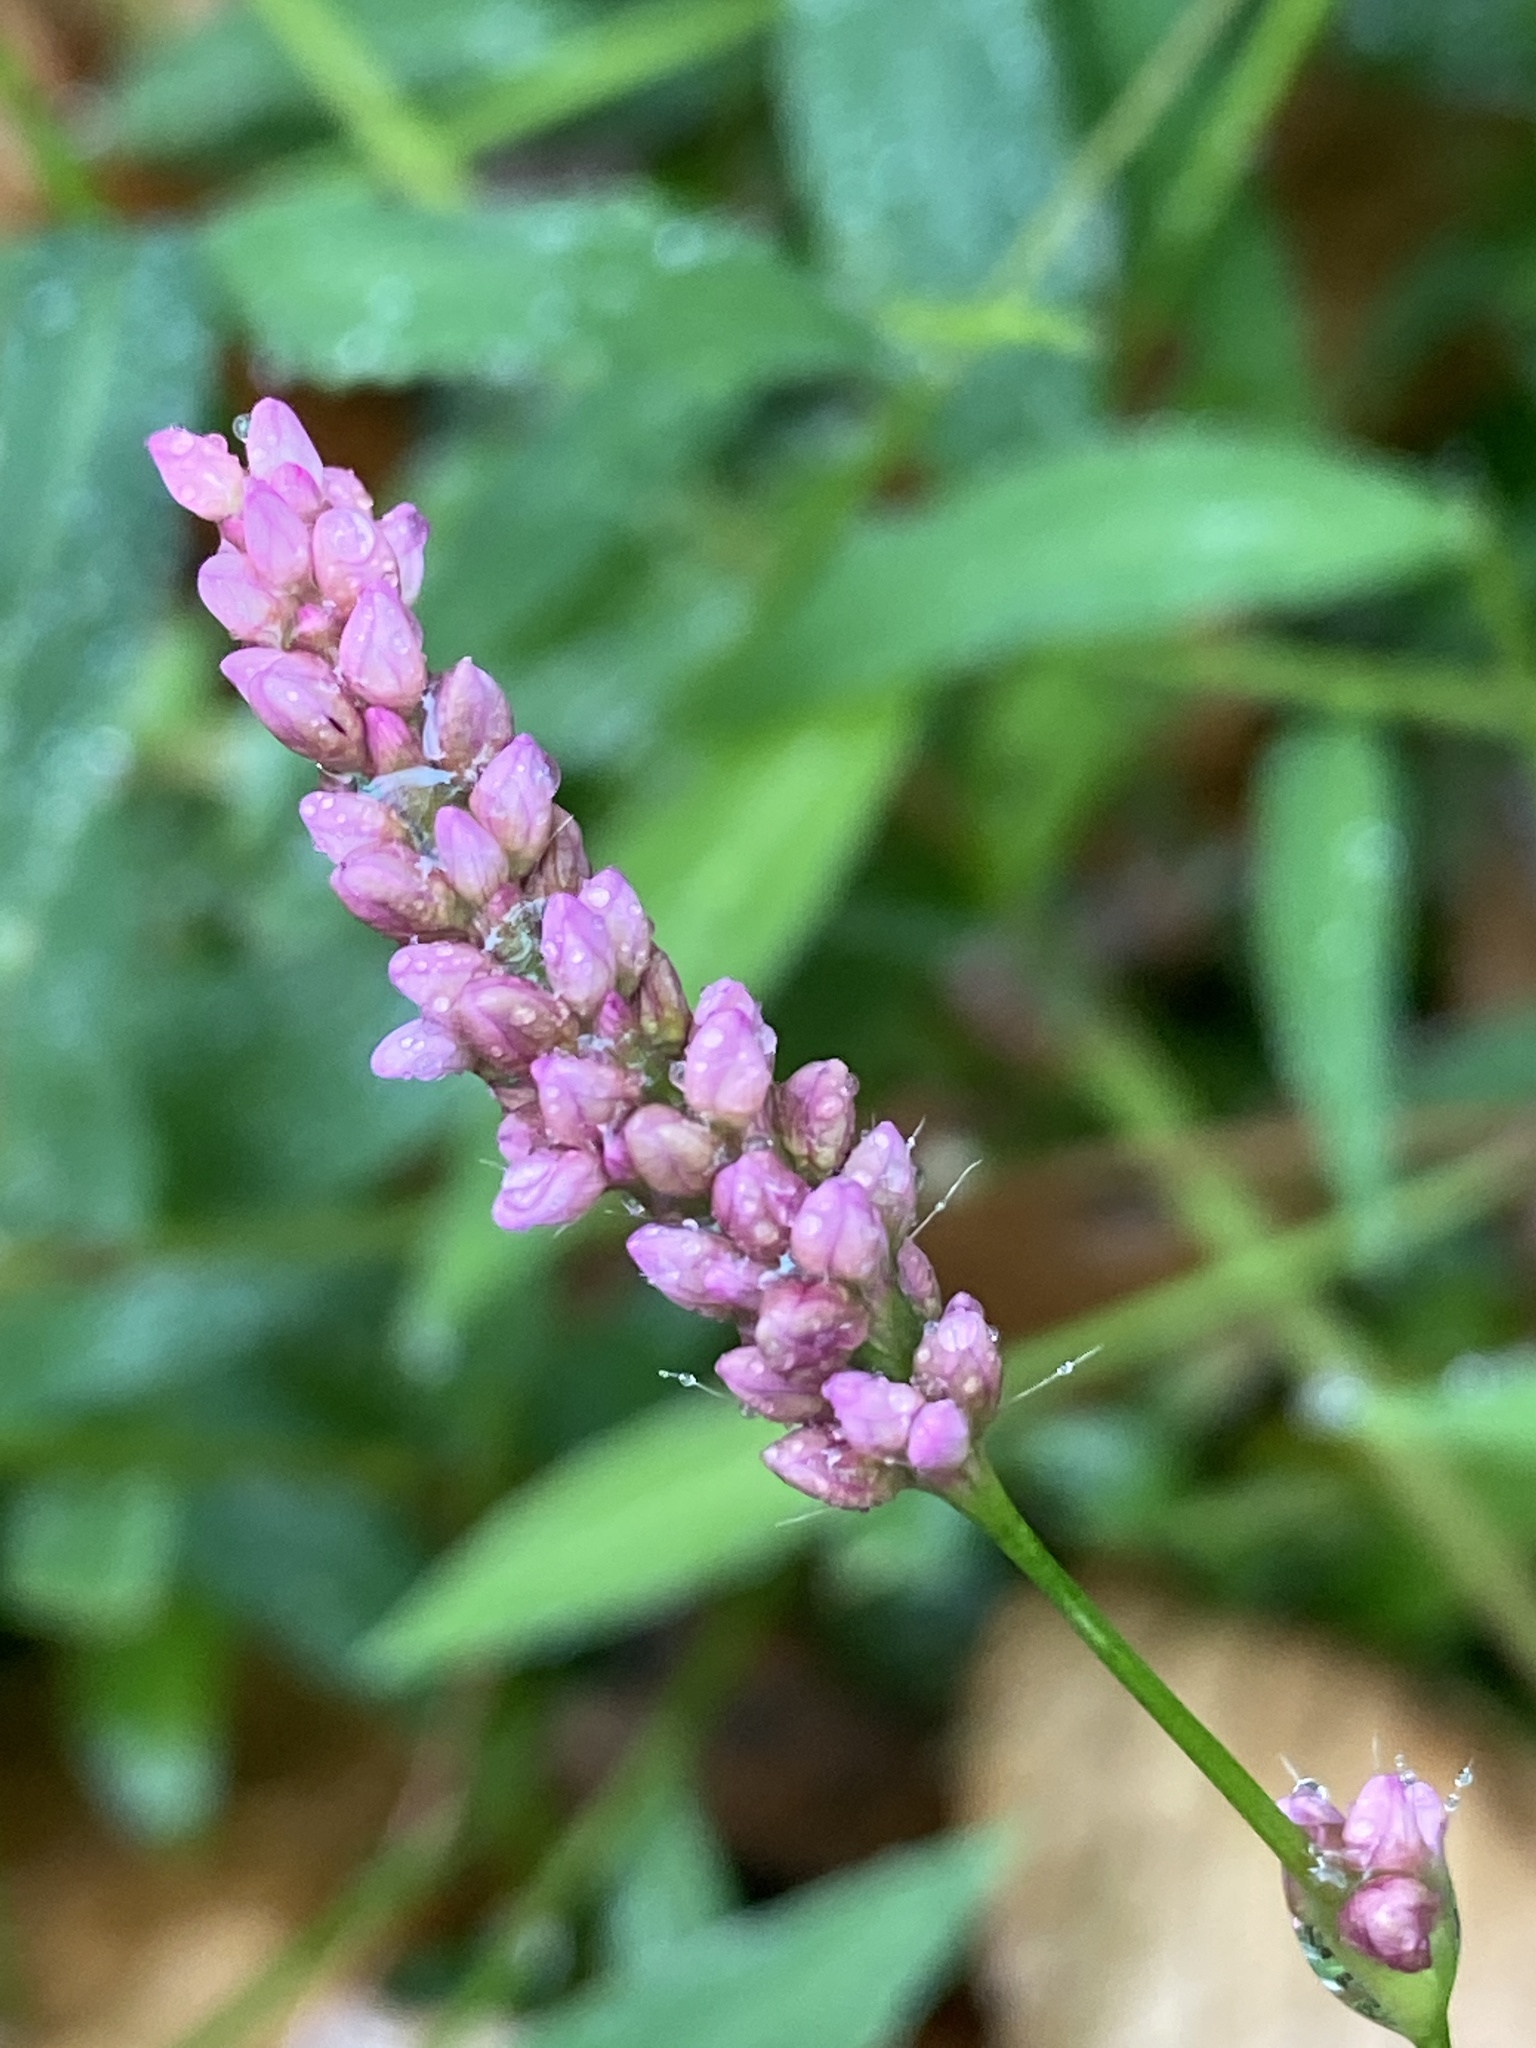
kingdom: Plantae
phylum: Tracheophyta
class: Magnoliopsida
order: Caryophyllales
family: Polygonaceae
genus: Persicaria
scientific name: Persicaria longiseta
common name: Bristly lady's-thumb
